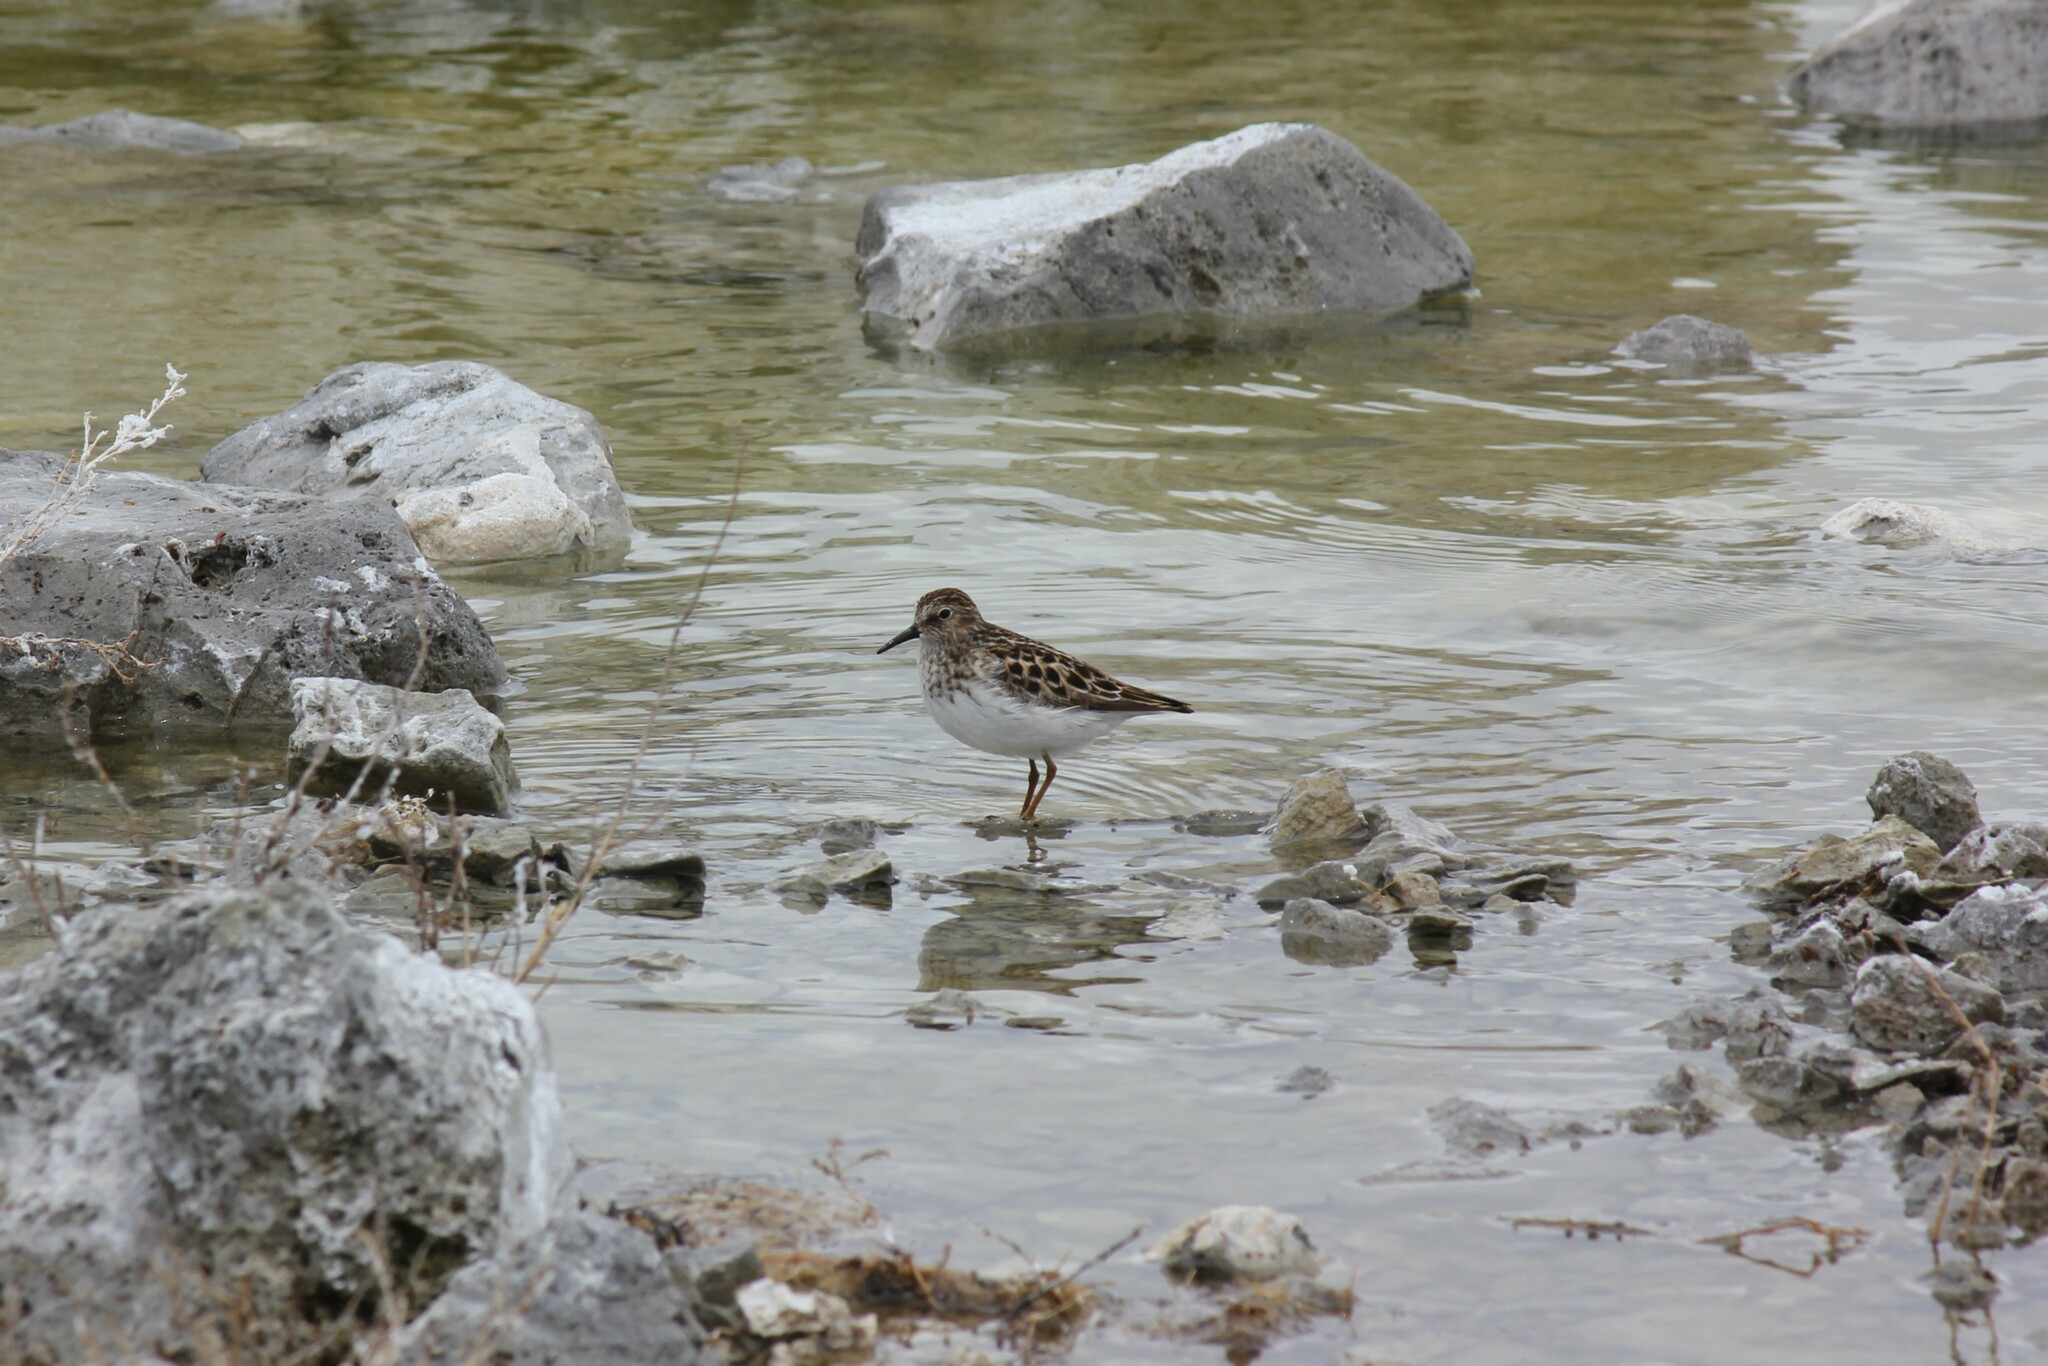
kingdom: Animalia
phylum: Chordata
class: Aves
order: Charadriiformes
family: Scolopacidae
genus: Calidris
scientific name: Calidris minutilla
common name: Least sandpiper
